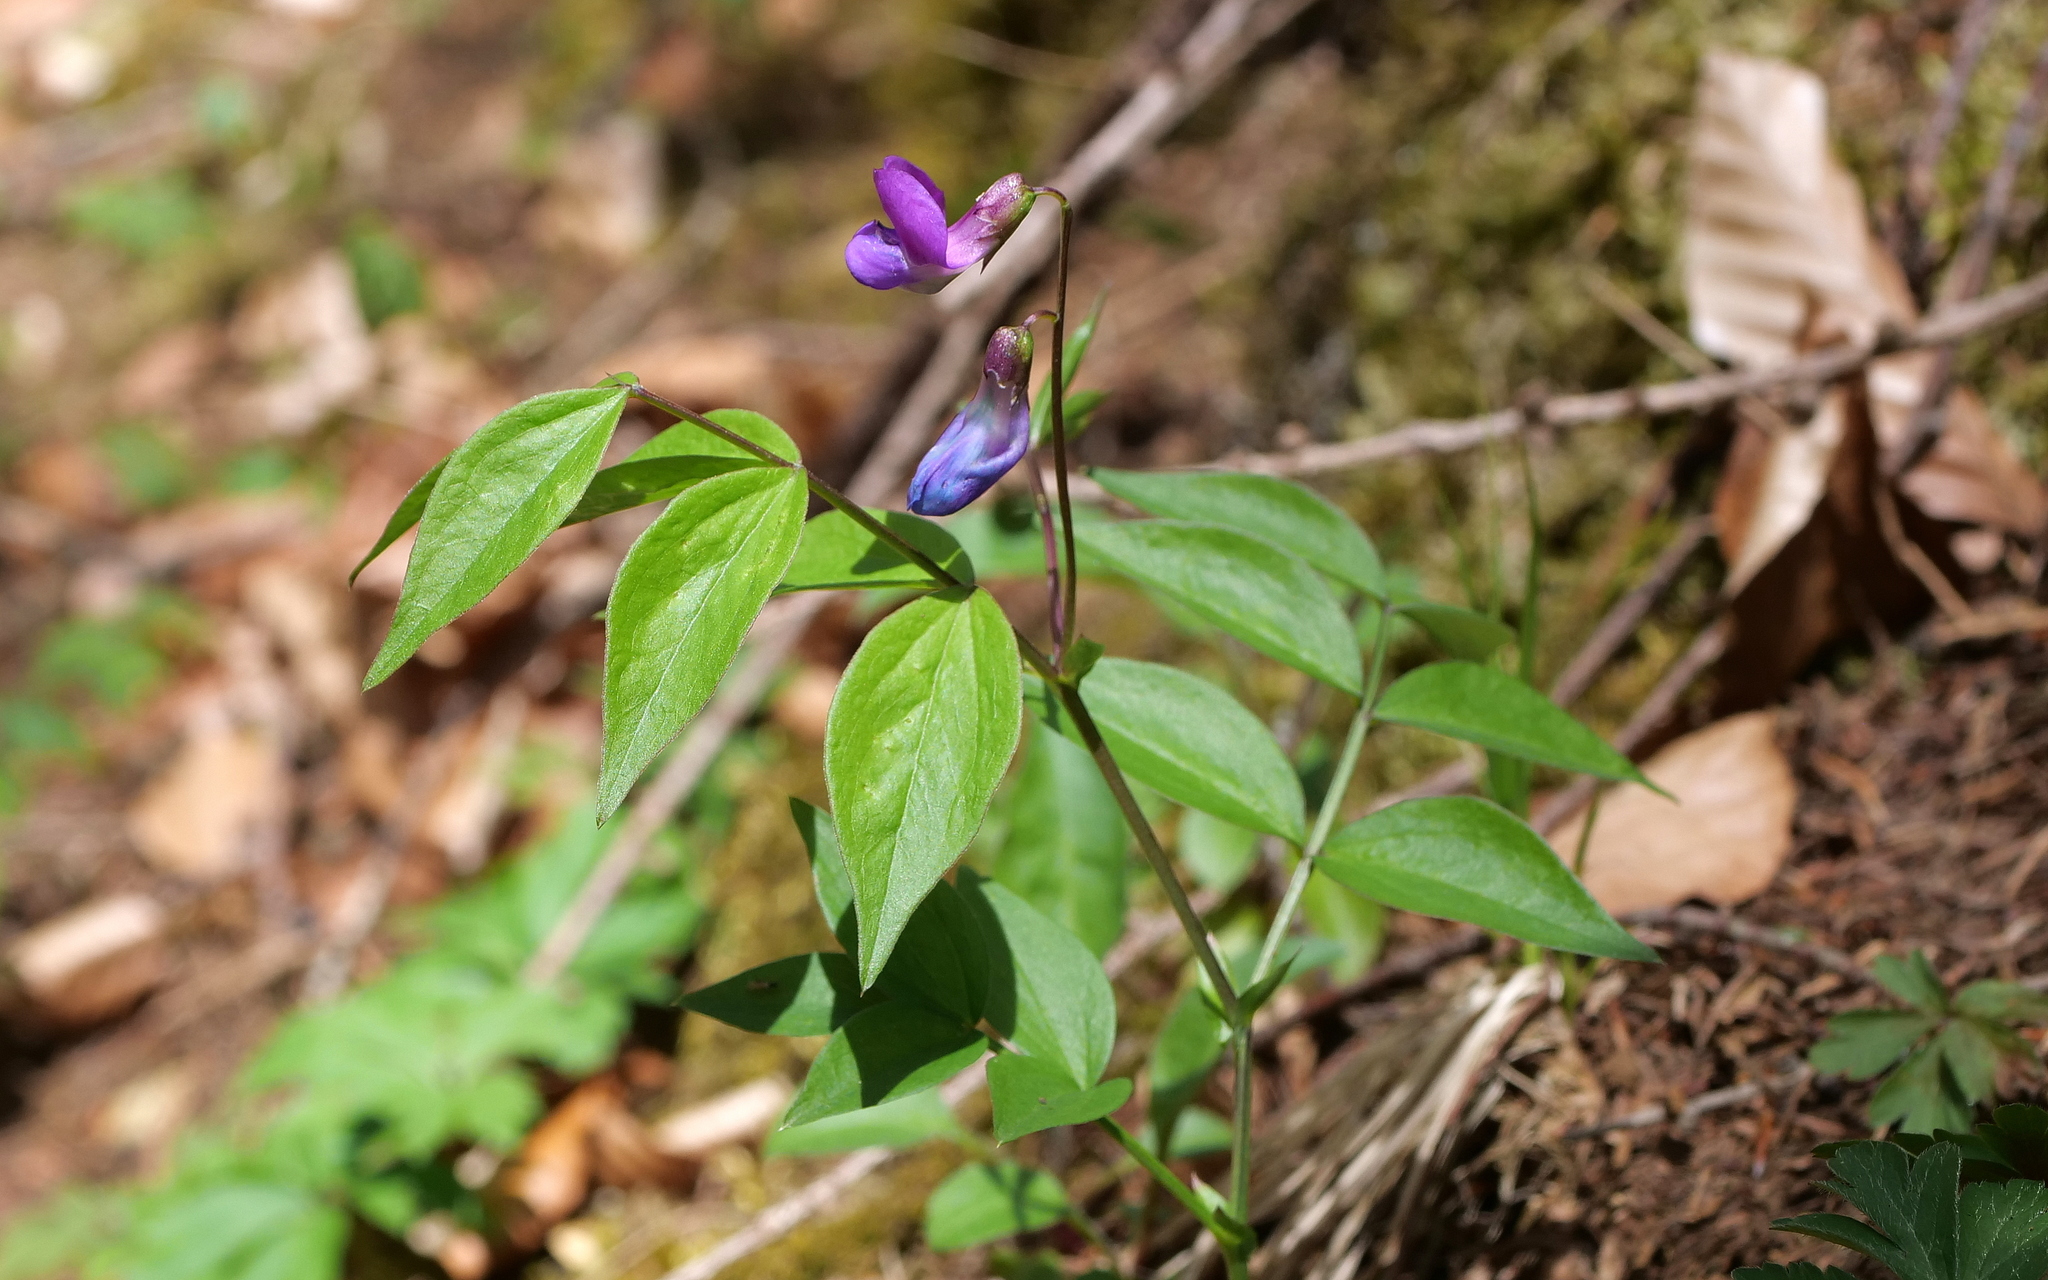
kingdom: Plantae
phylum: Tracheophyta
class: Magnoliopsida
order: Fabales
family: Fabaceae
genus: Lathyrus
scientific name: Lathyrus vernus
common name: Spring pea
